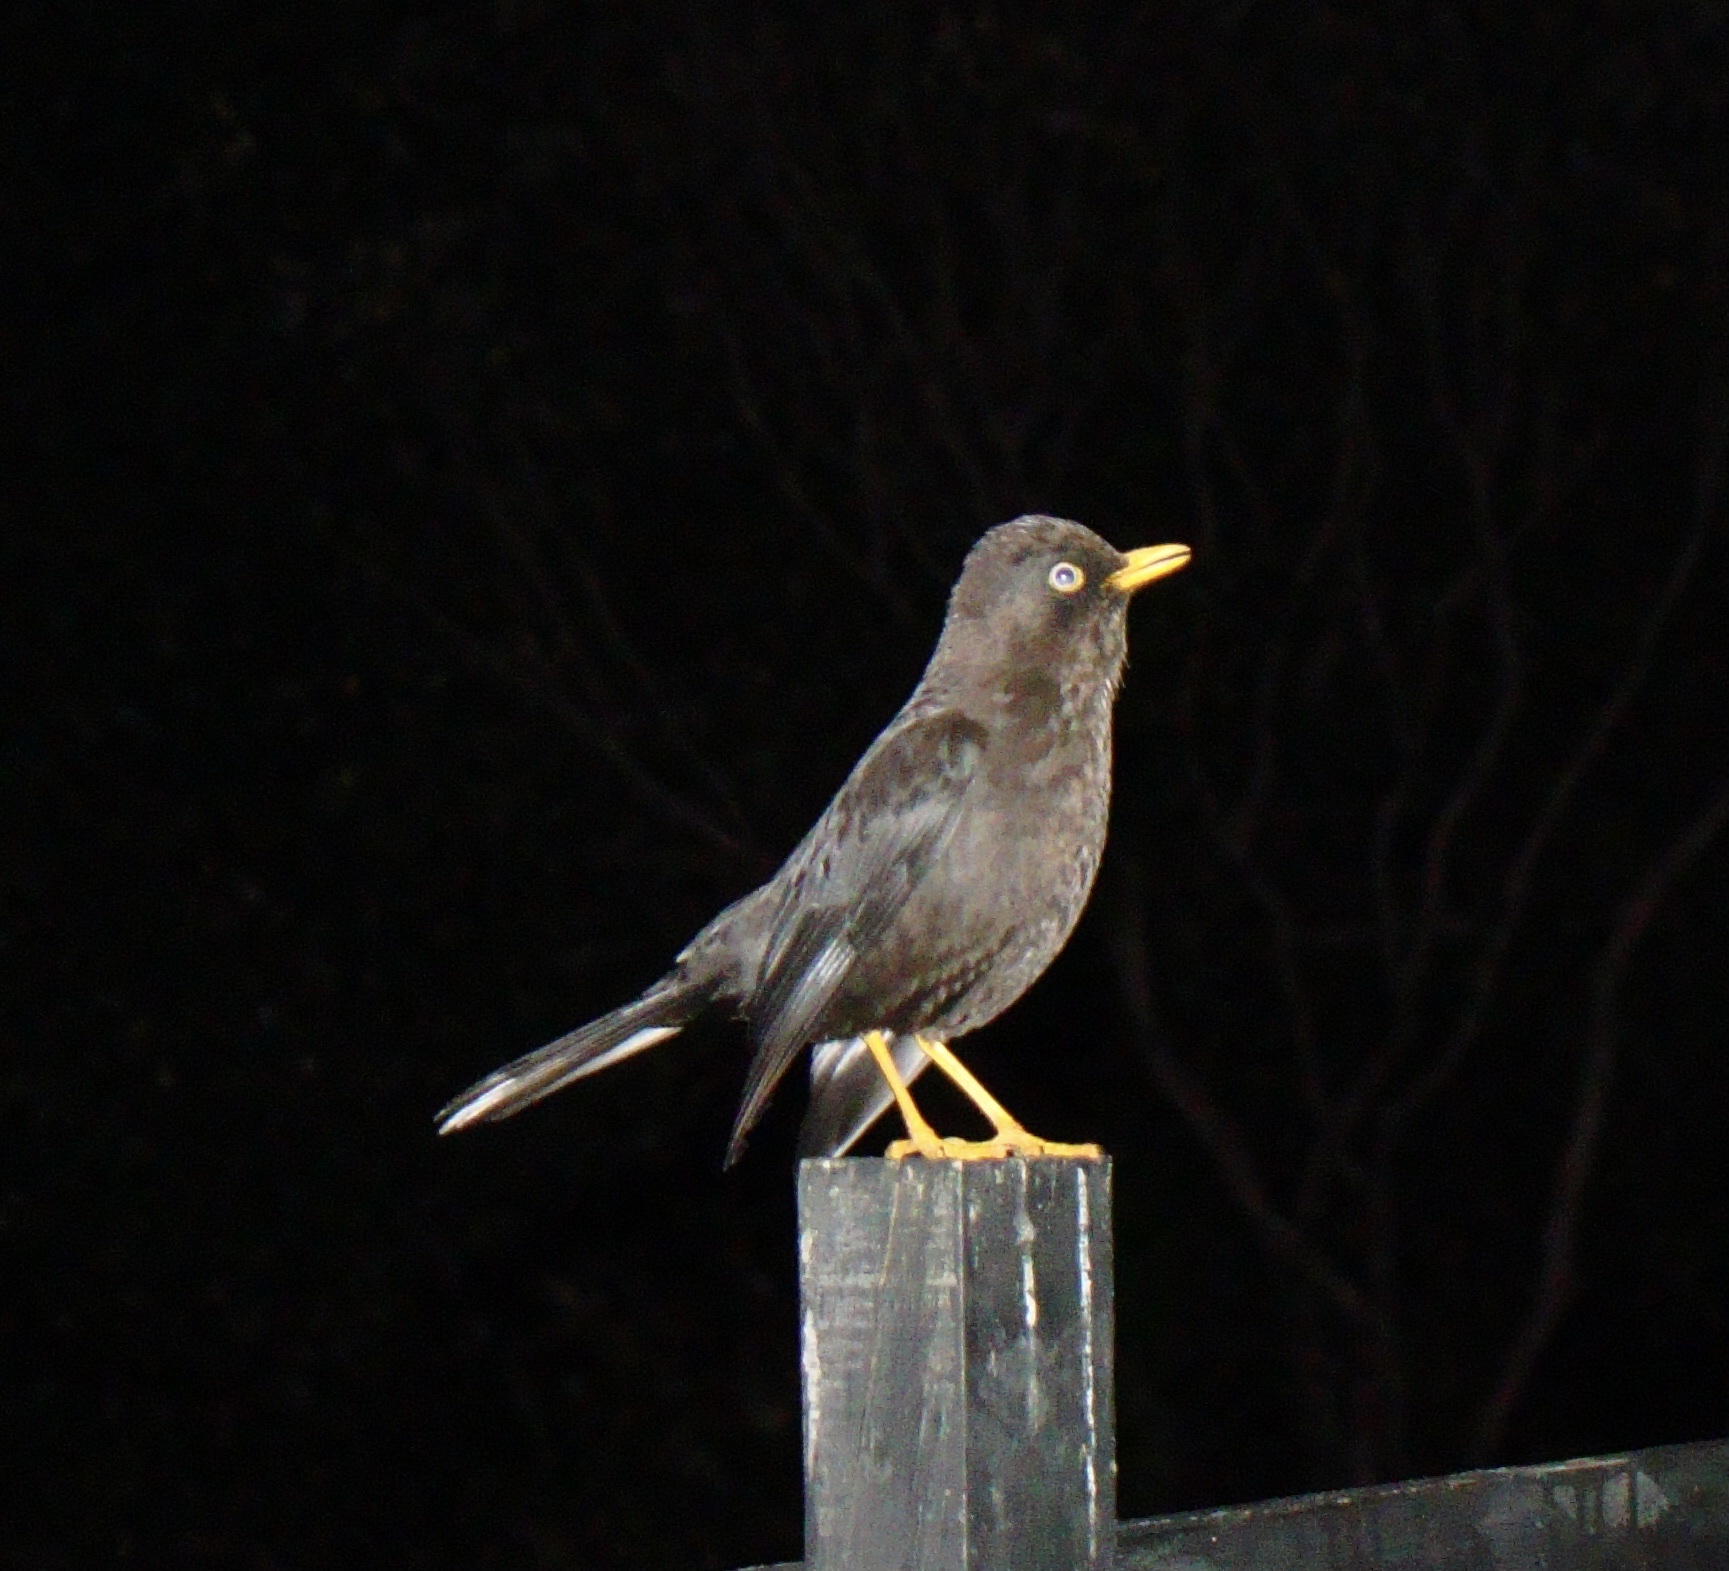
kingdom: Animalia
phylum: Chordata
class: Aves
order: Passeriformes
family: Turdidae
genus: Turdus
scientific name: Turdus nigrescens
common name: Sooty thrush
